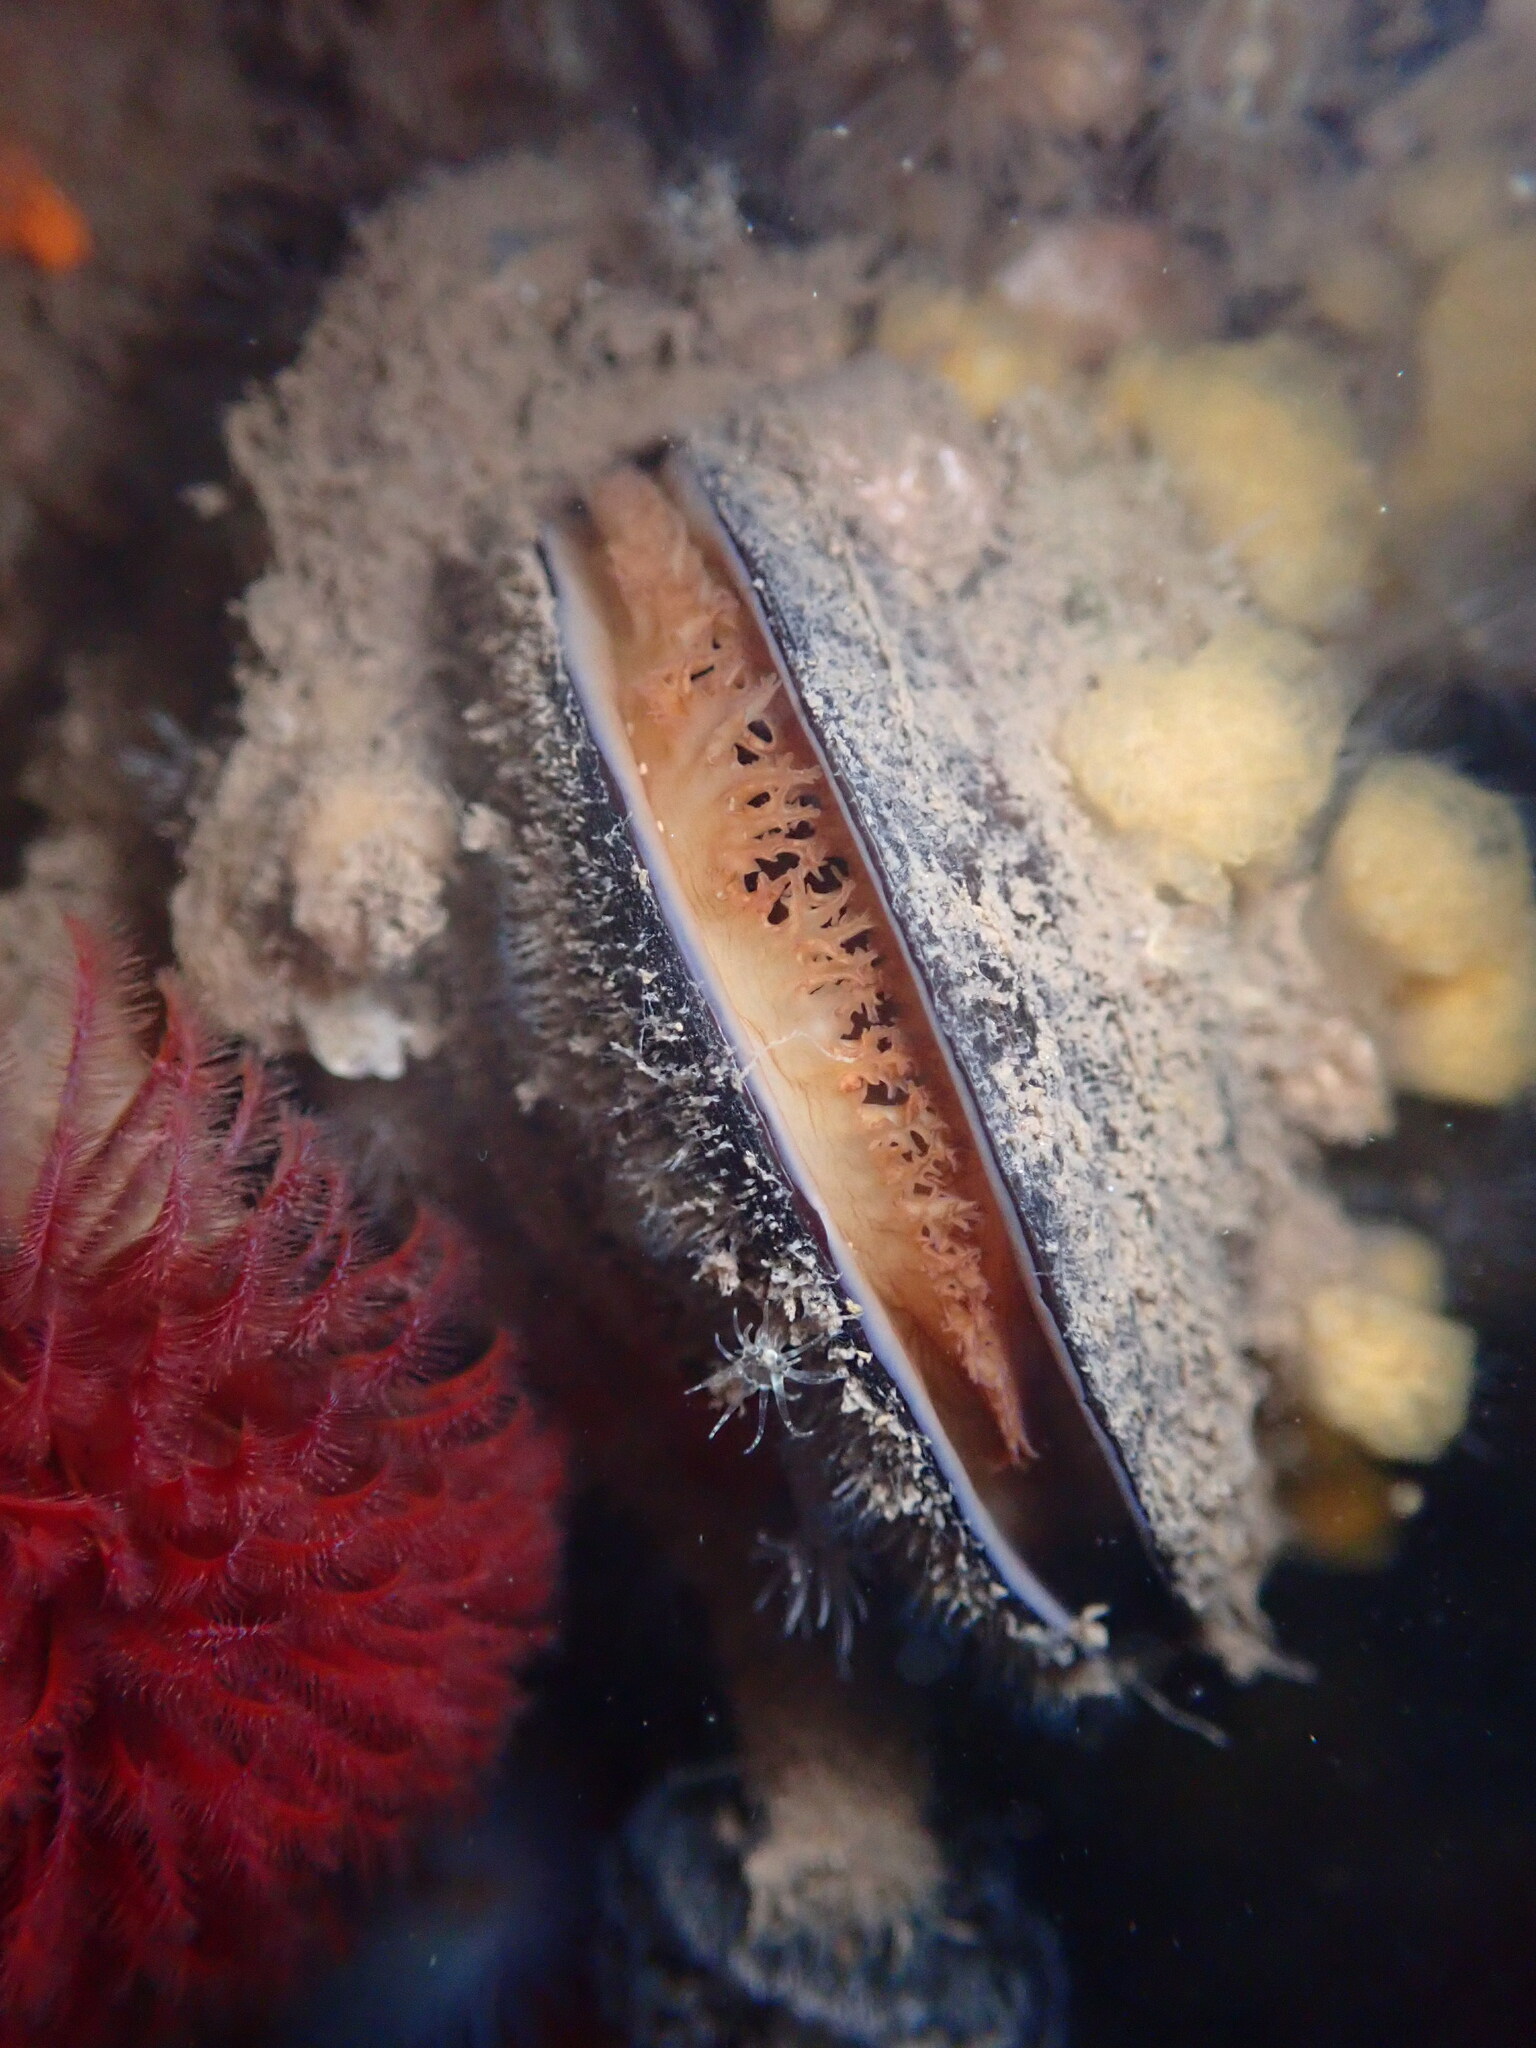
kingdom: Animalia
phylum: Mollusca
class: Bivalvia
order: Mytilida
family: Mytilidae
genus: Mytilus
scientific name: Mytilus
